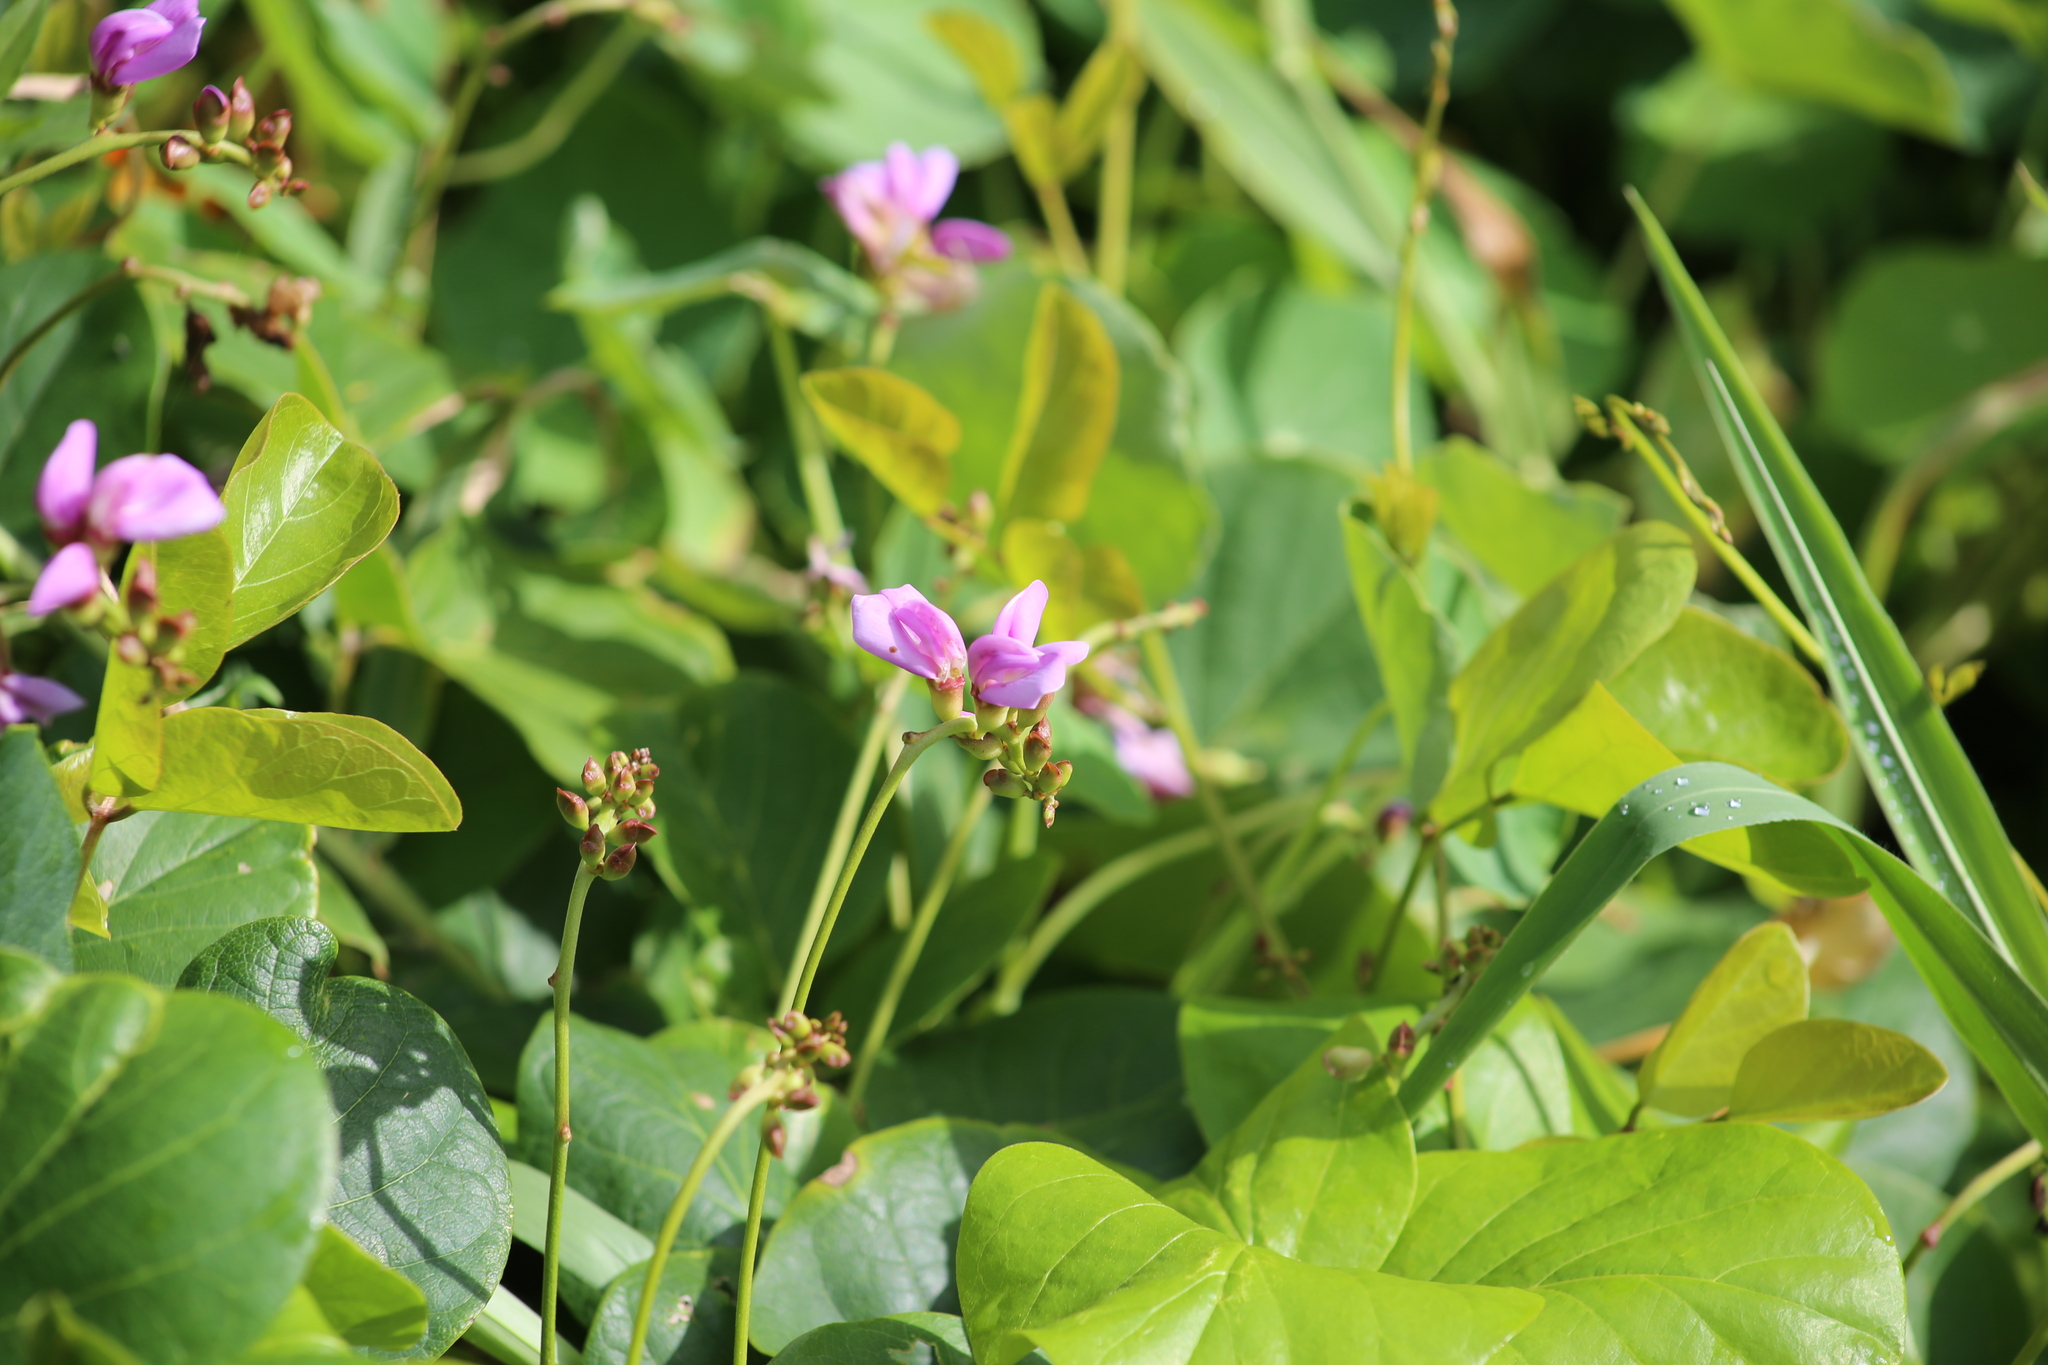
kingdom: Plantae
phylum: Tracheophyta
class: Magnoliopsida
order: Fabales
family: Fabaceae
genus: Canavalia
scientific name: Canavalia rosea
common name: Beach-bean
